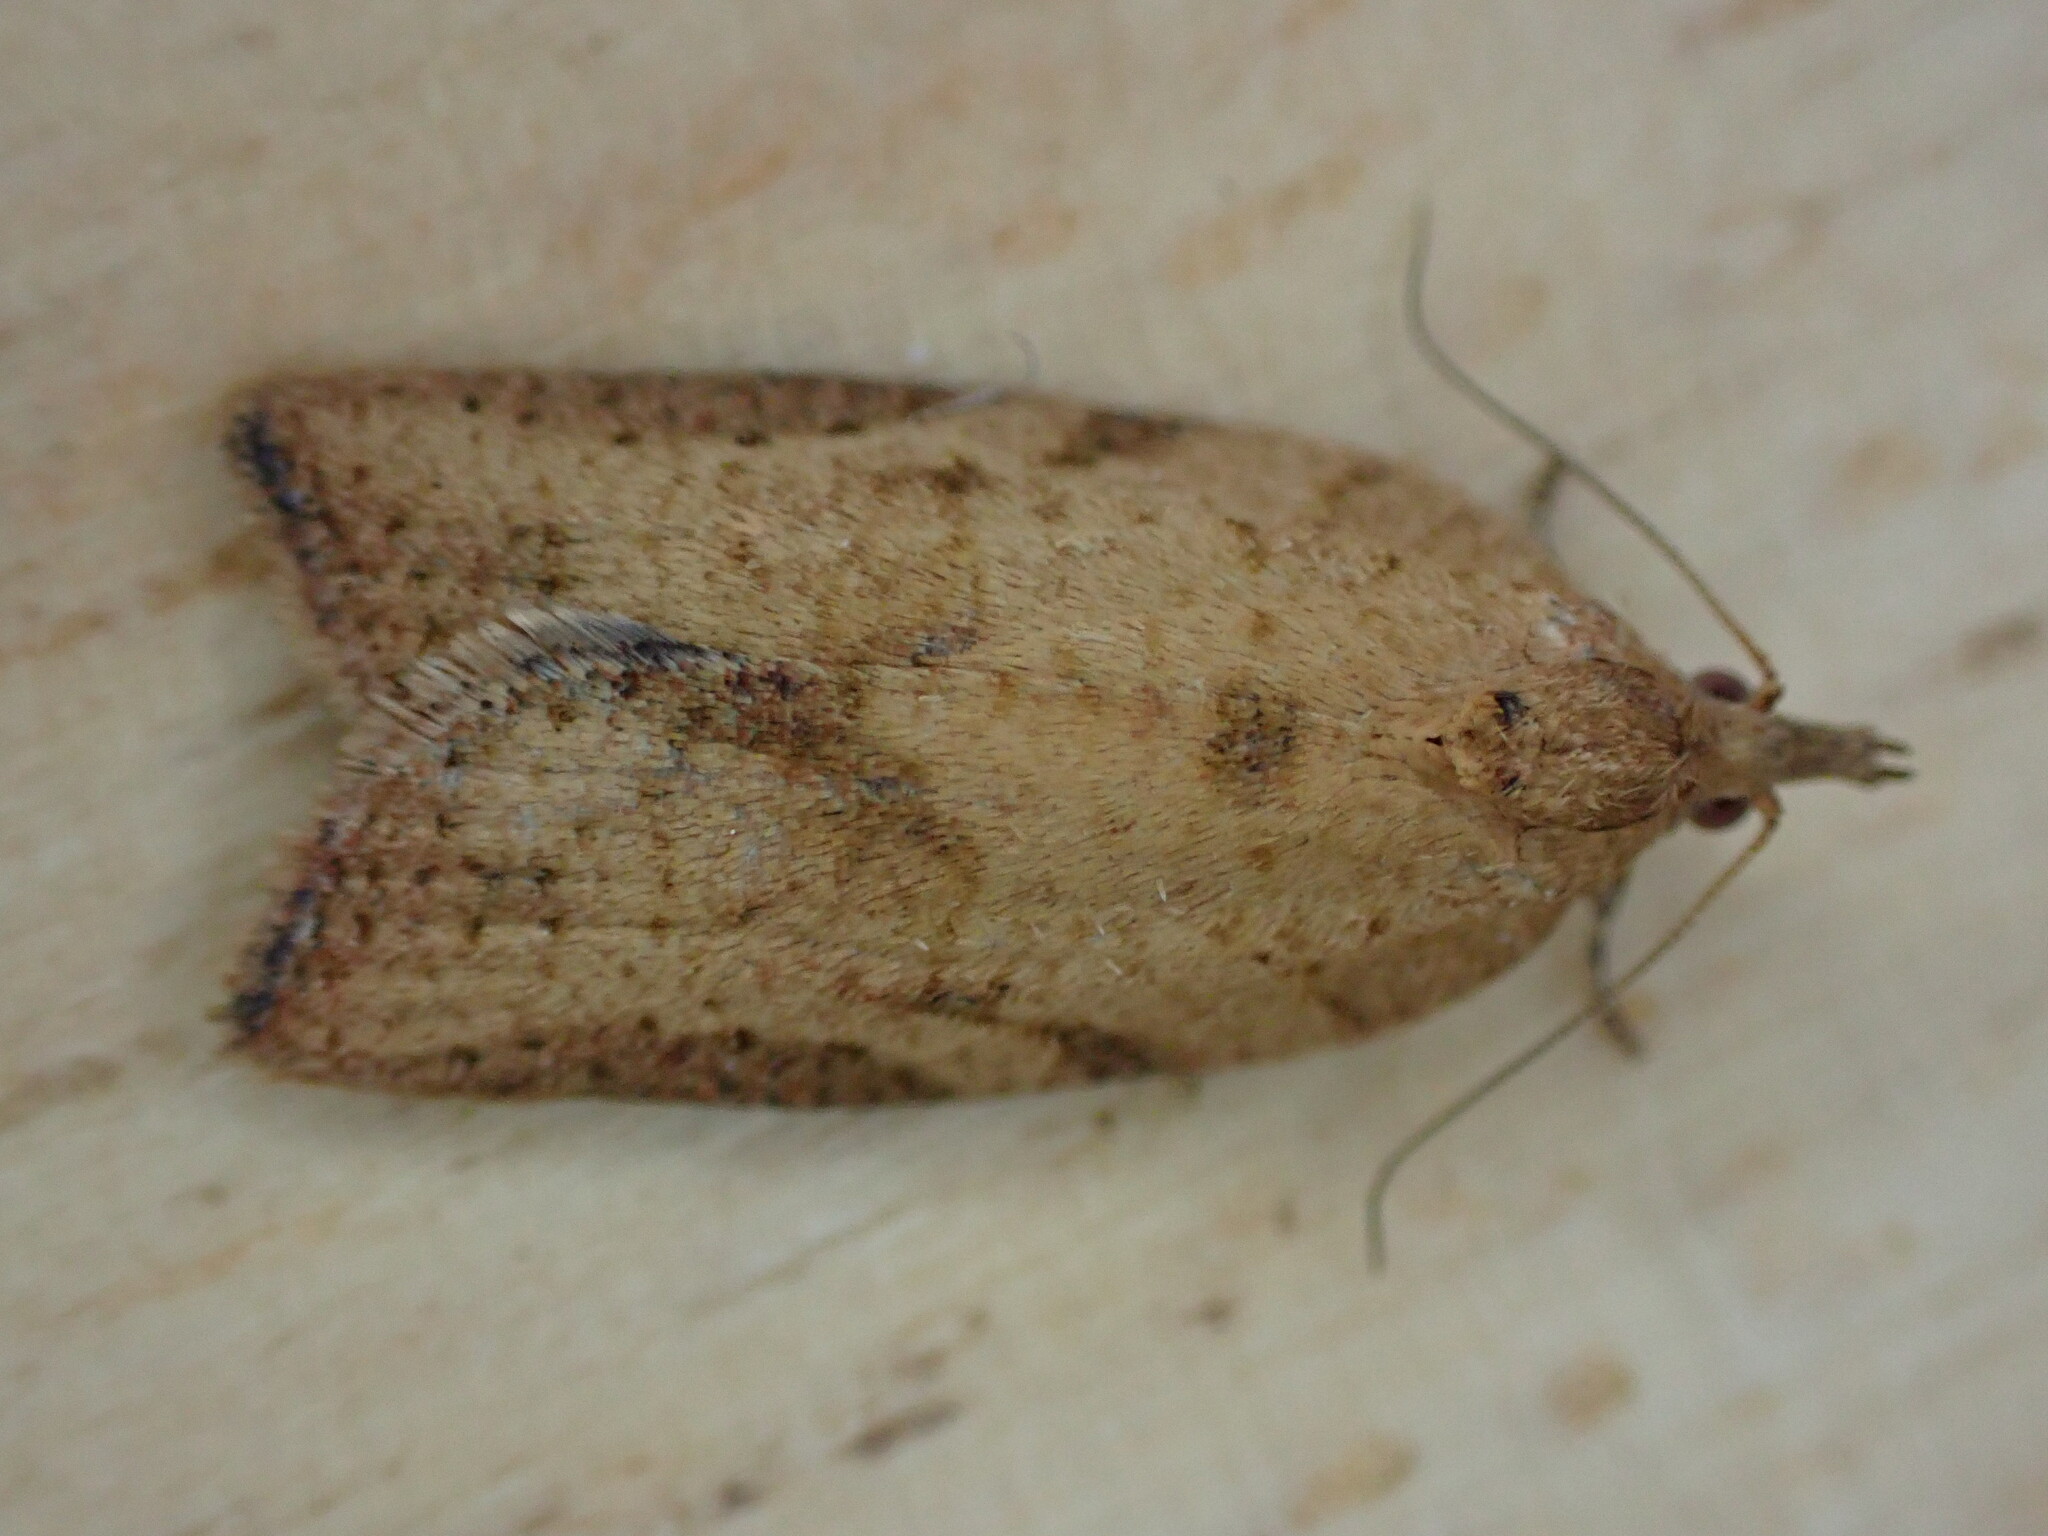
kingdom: Animalia
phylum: Arthropoda
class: Insecta
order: Lepidoptera
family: Tortricidae
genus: Epiphyas
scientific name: Epiphyas postvittana
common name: Light brown apple moth
